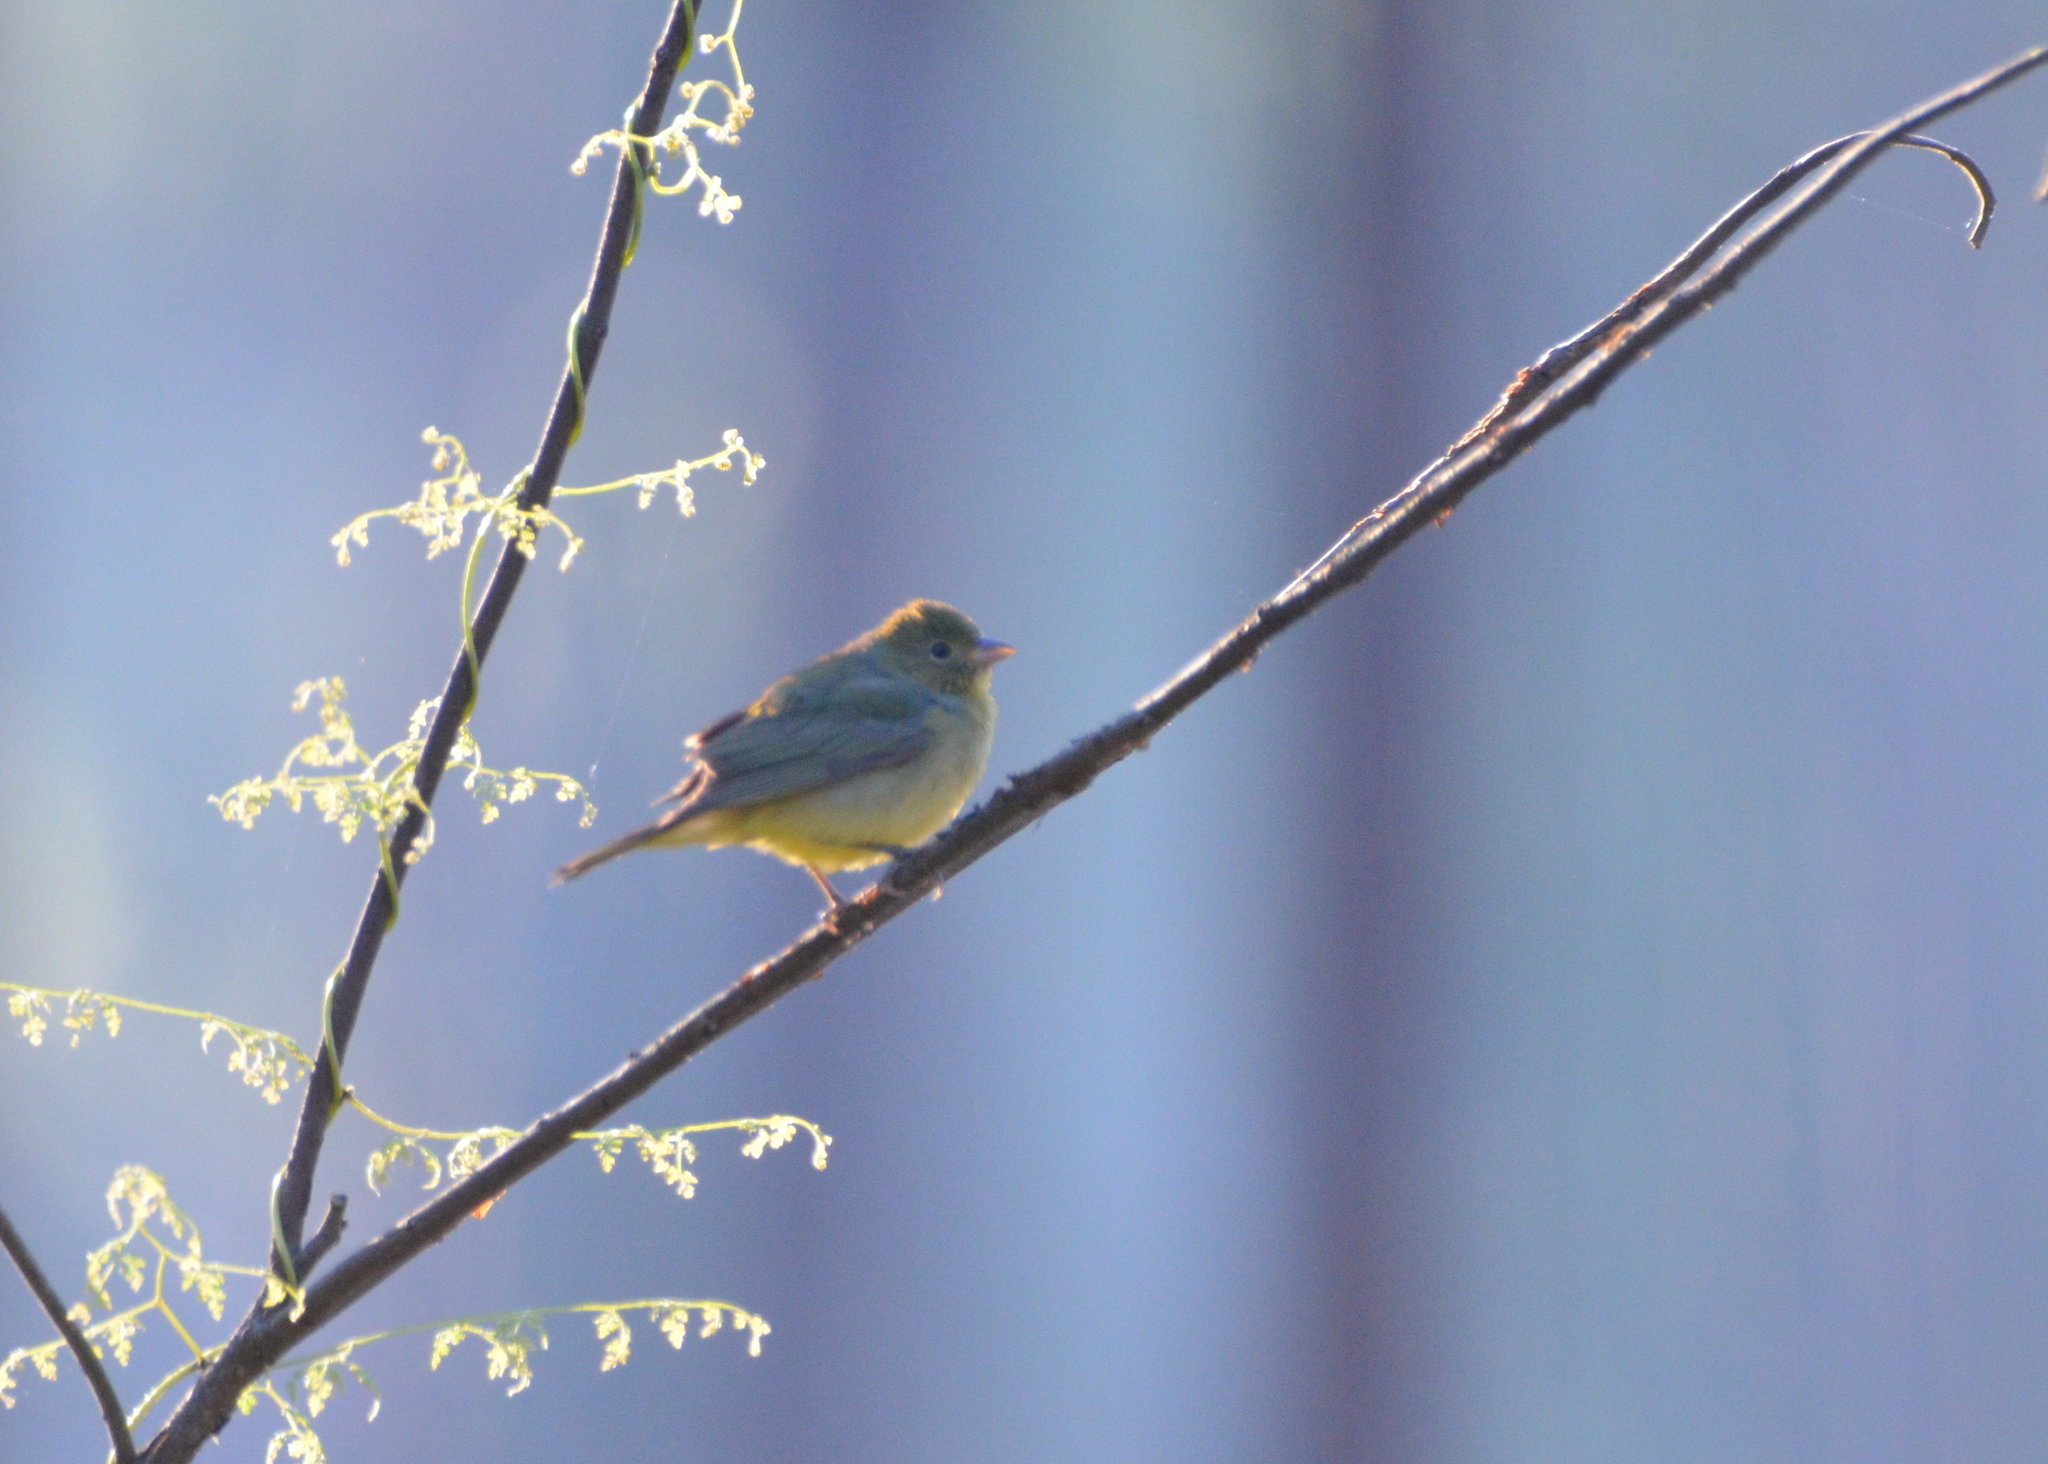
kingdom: Animalia
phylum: Chordata
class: Aves
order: Passeriformes
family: Cardinalidae
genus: Passerina
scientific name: Passerina ciris
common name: Painted bunting
